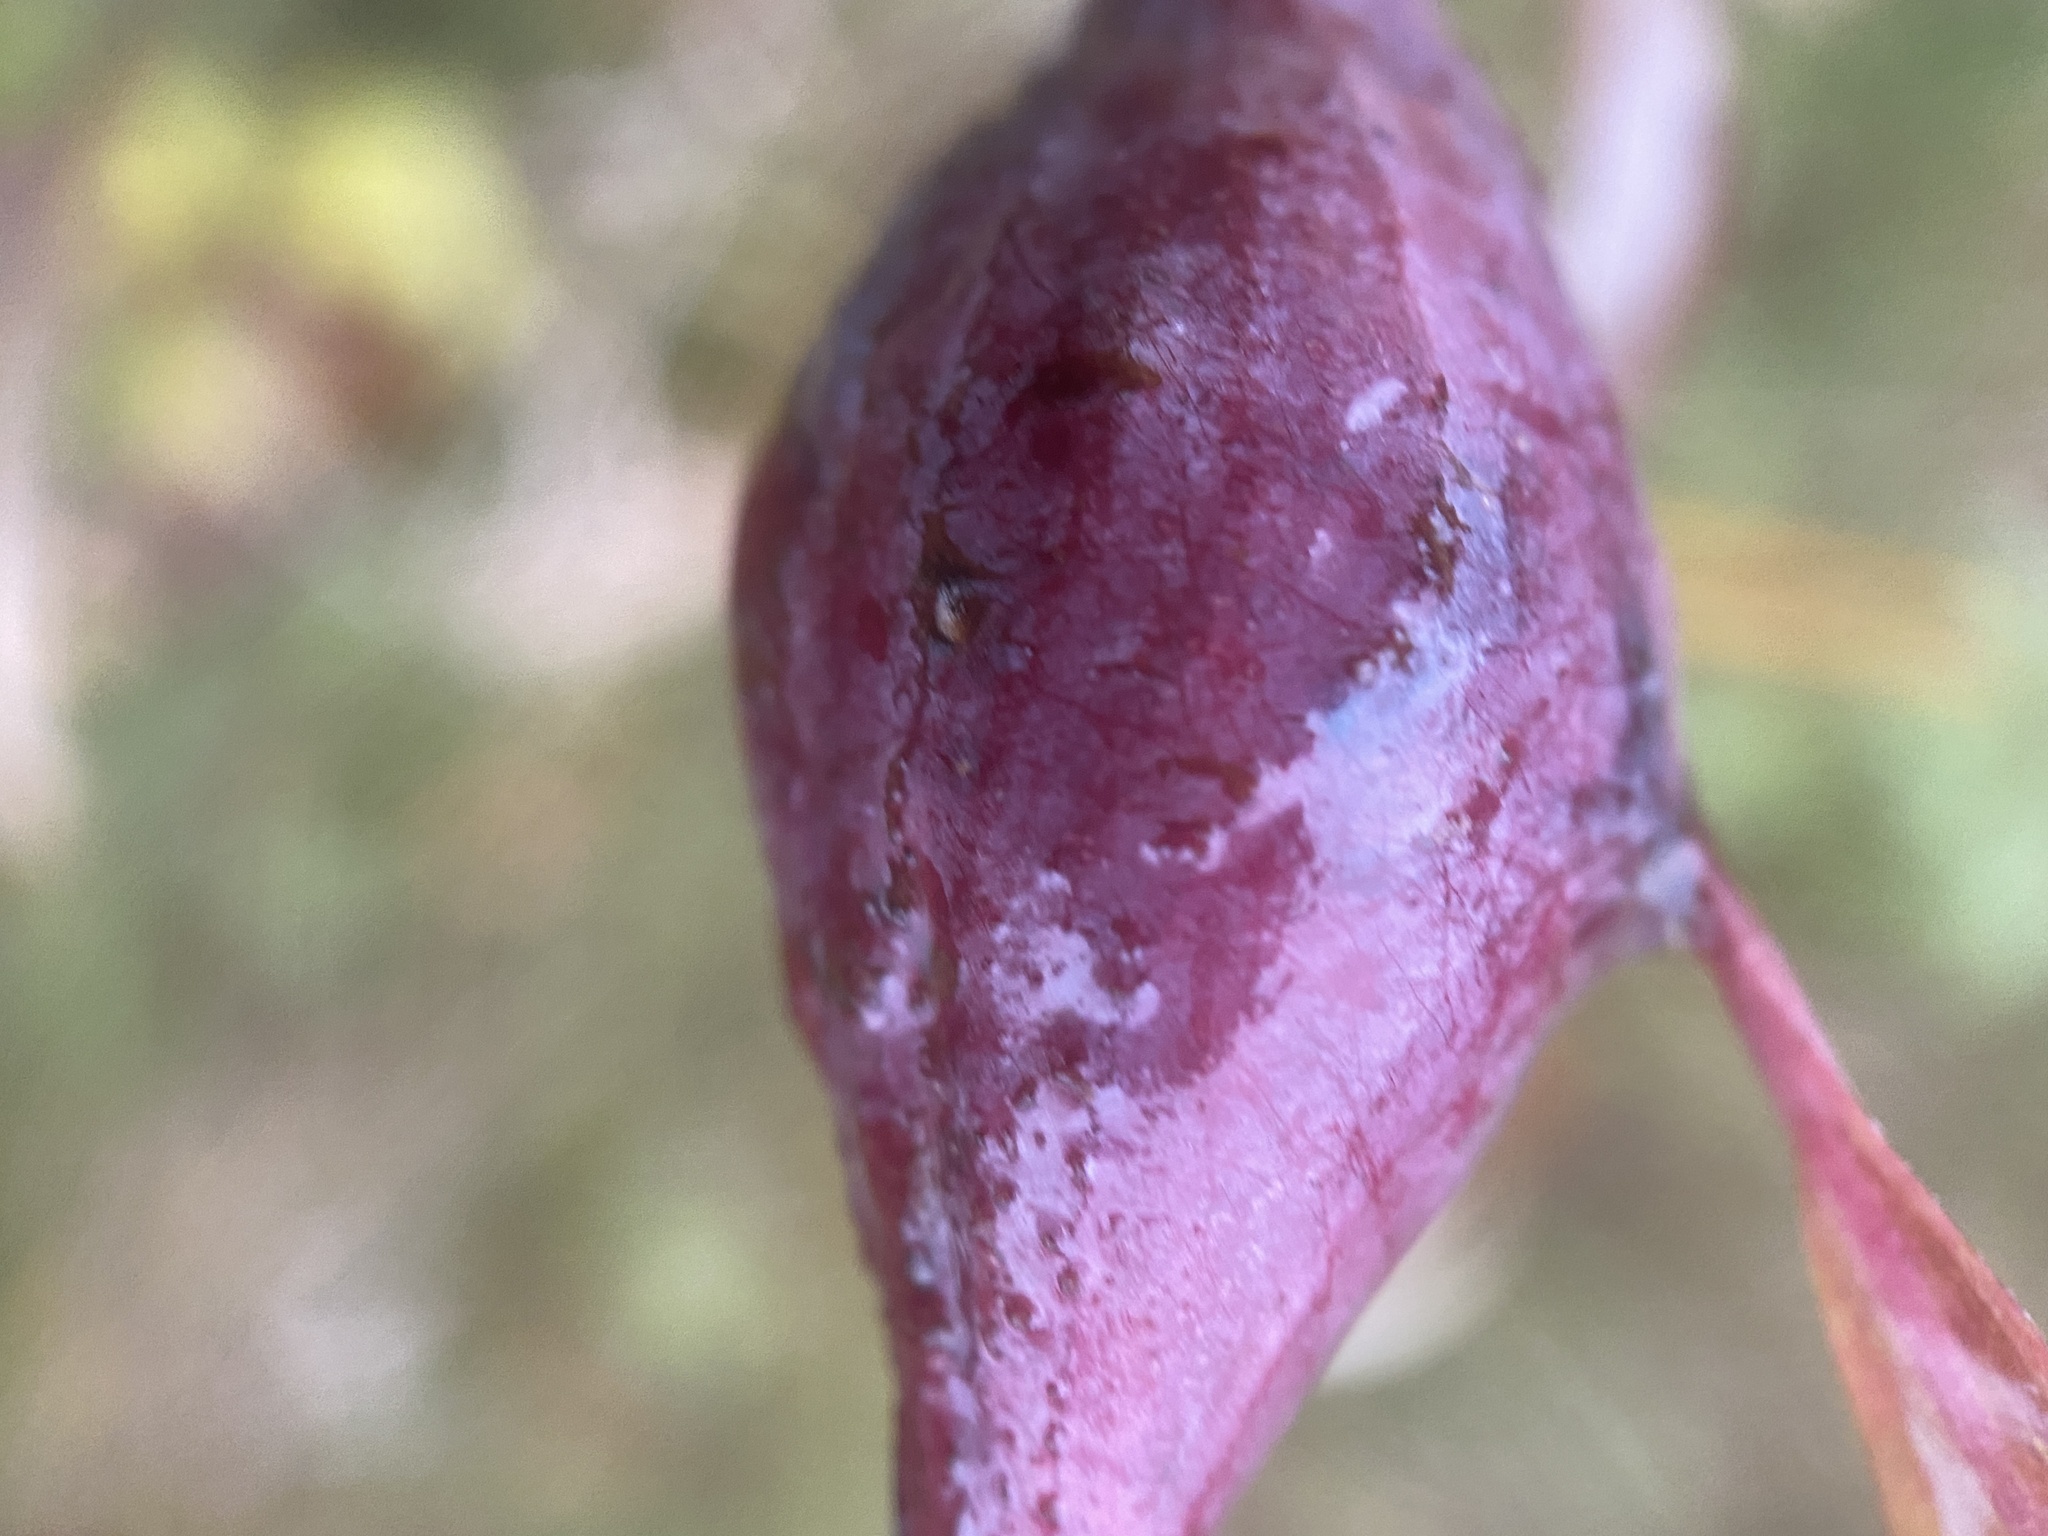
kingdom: Animalia
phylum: Arthropoda
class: Insecta
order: Diptera
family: Tephritidae
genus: Eurosta
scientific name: Eurosta solidaginis
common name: Goldenrod gall fly
